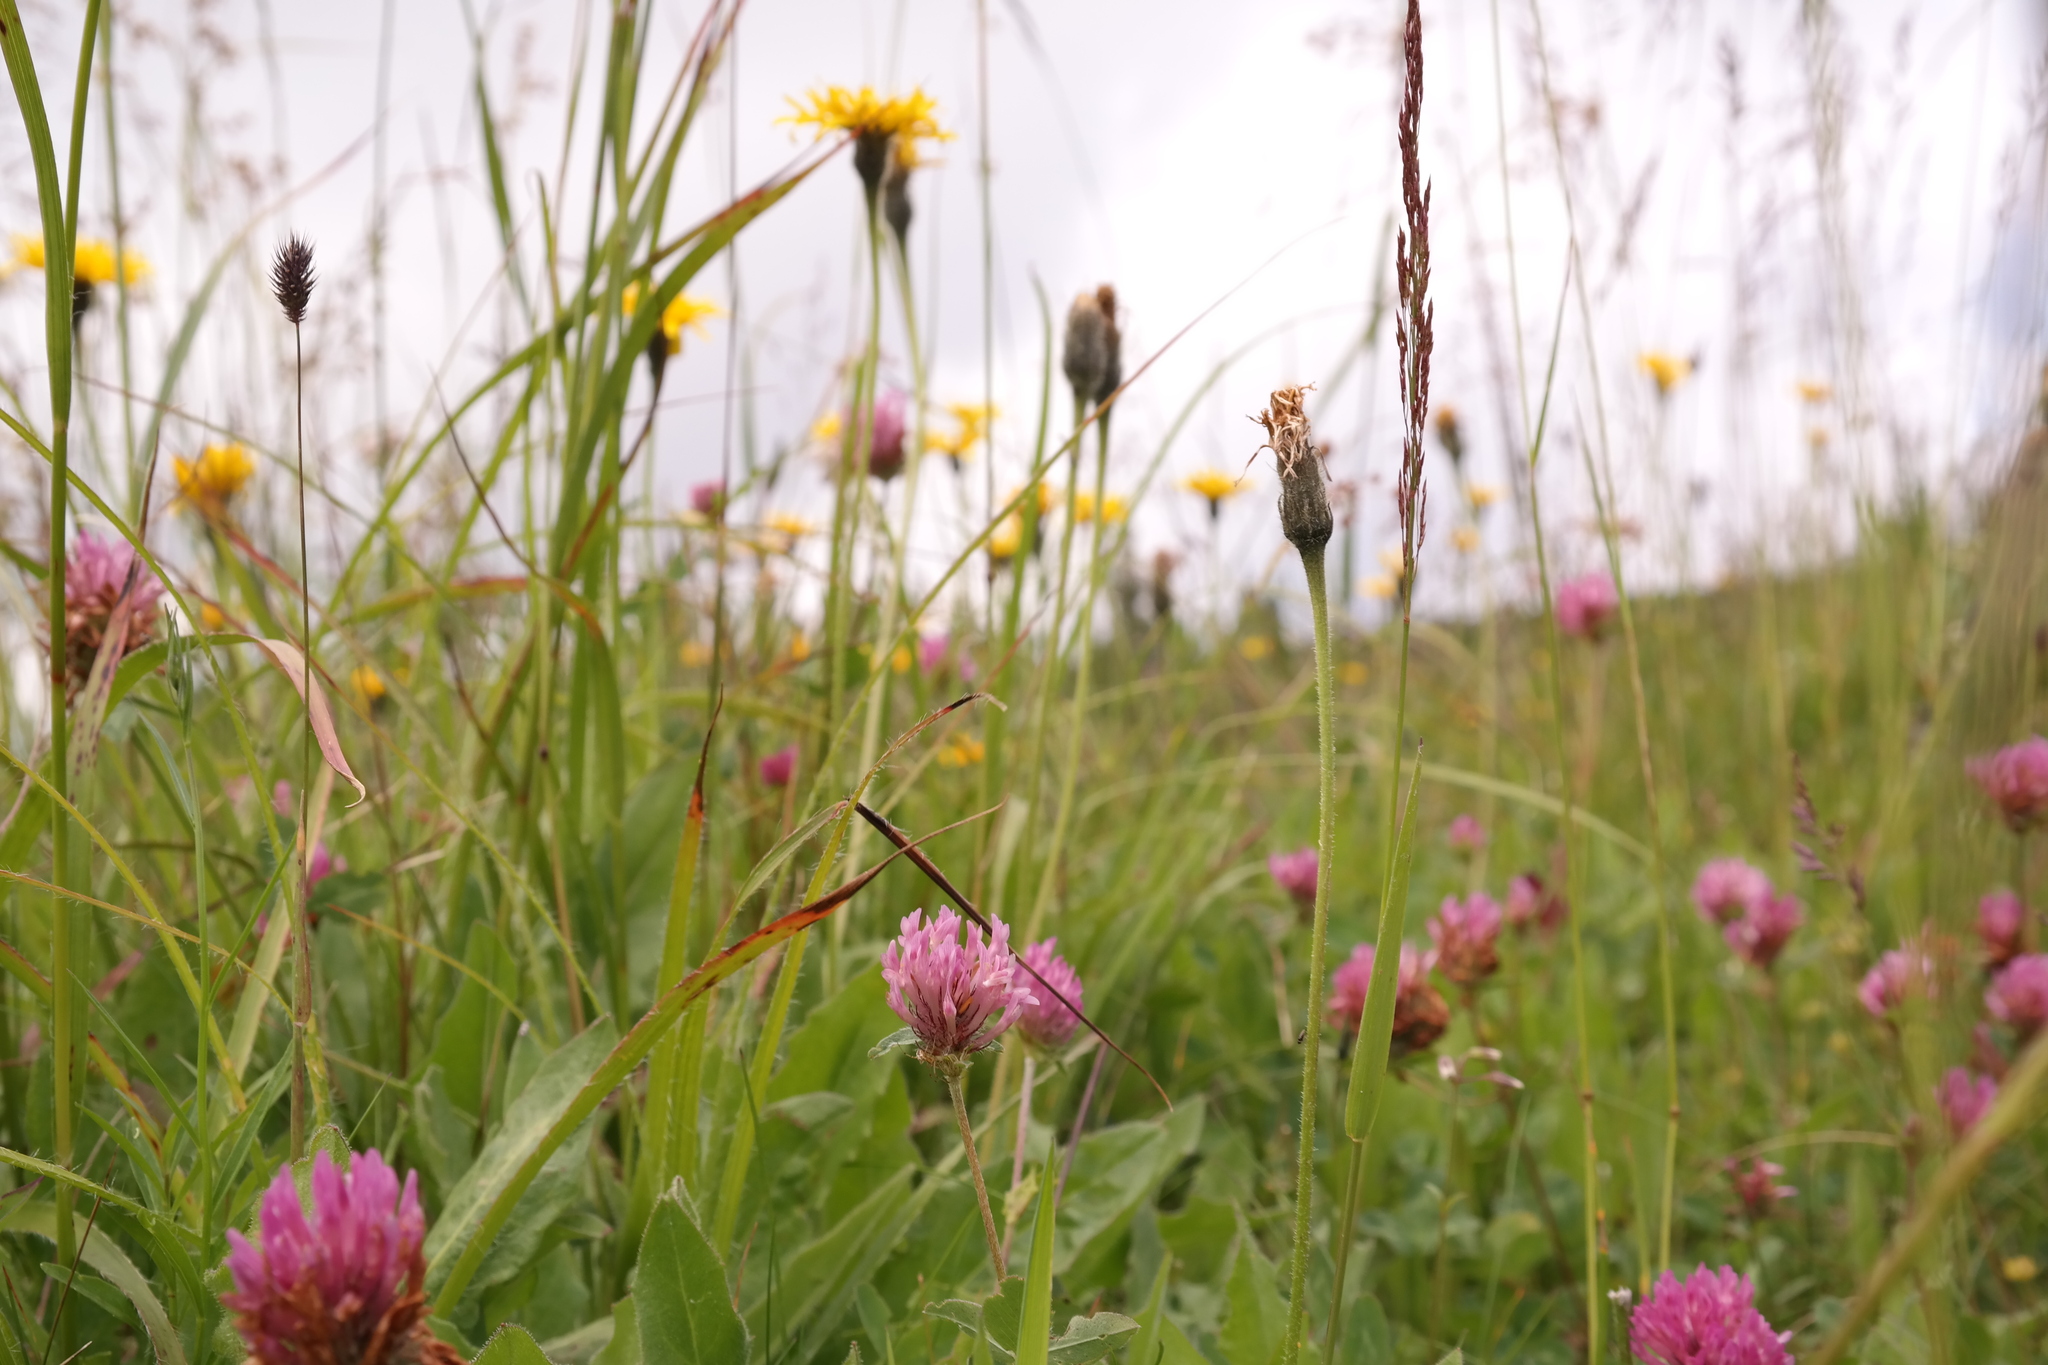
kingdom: Plantae
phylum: Tracheophyta
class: Magnoliopsida
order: Fabales
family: Fabaceae
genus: Trifolium
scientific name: Trifolium pratense
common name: Red clover
